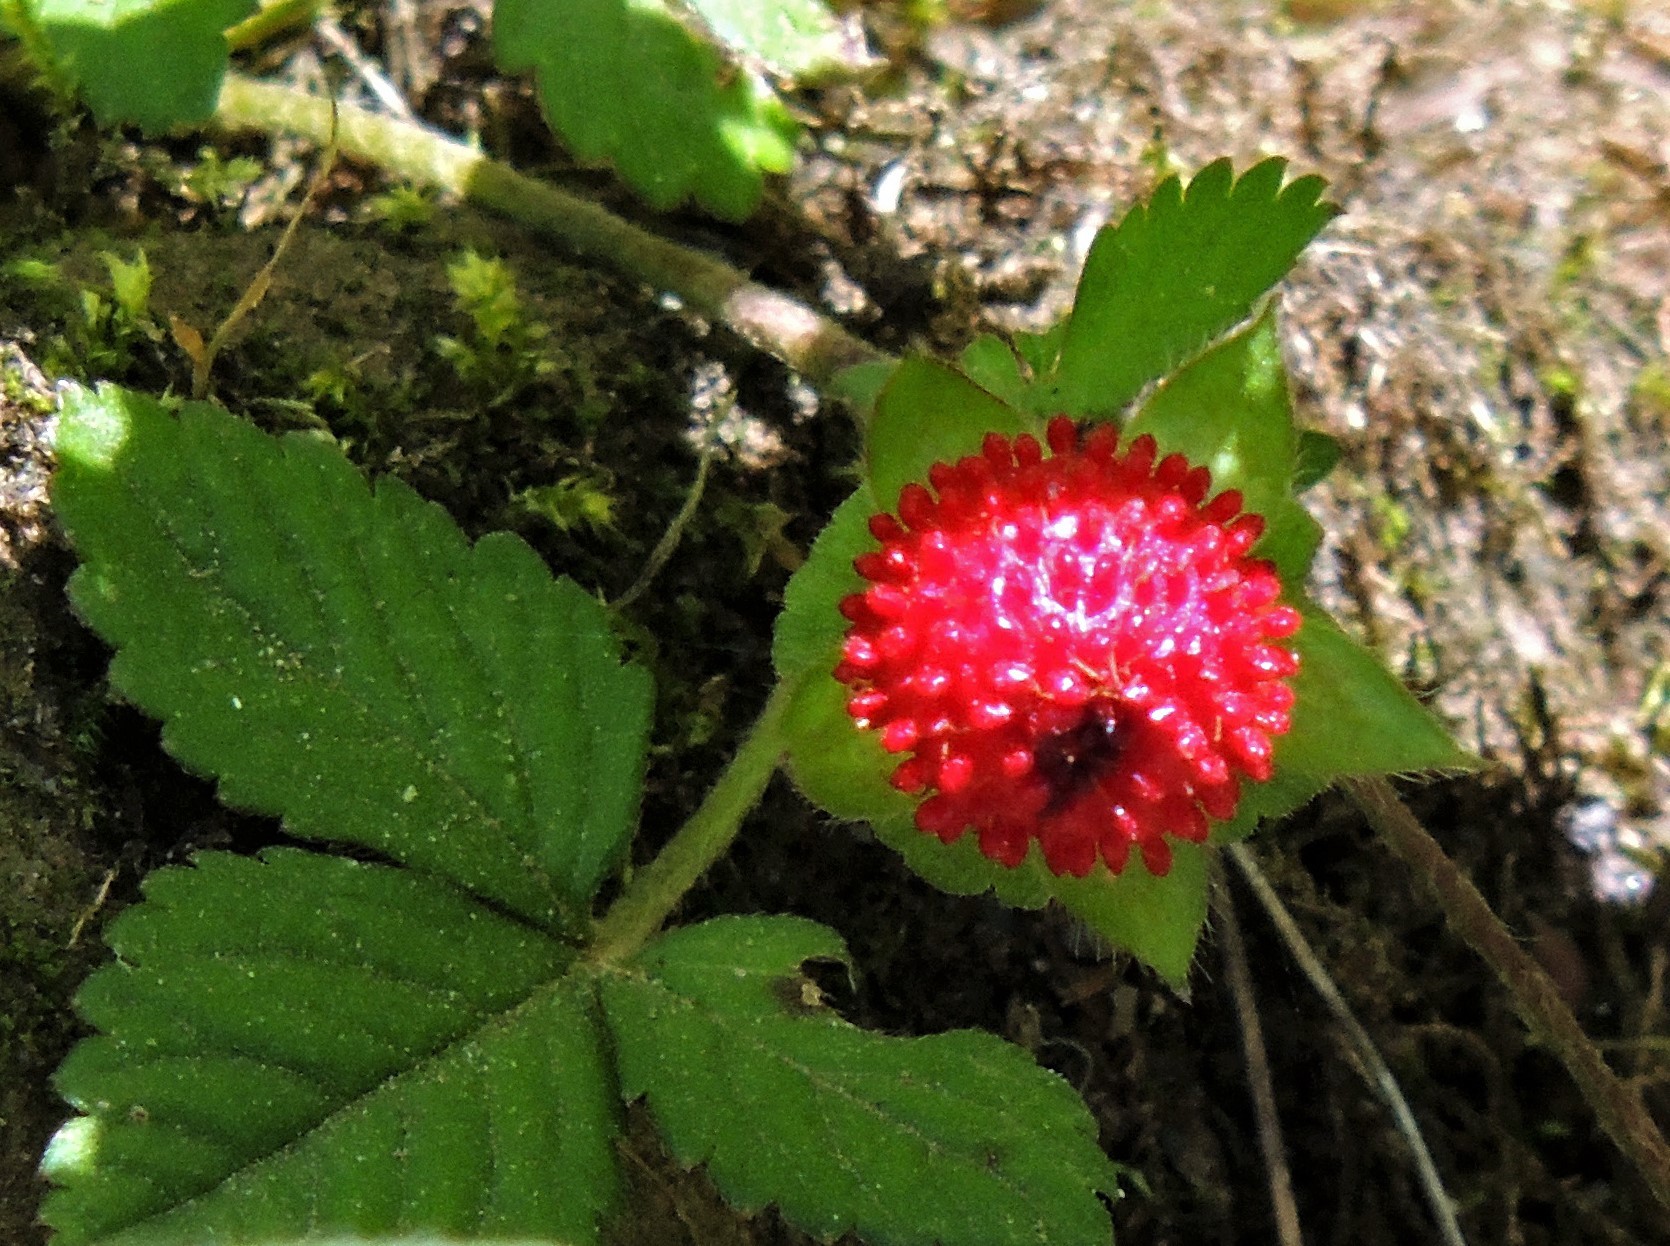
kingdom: Plantae
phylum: Tracheophyta
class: Magnoliopsida
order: Rosales
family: Rosaceae
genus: Potentilla
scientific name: Potentilla indica
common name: Yellow-flowered strawberry
